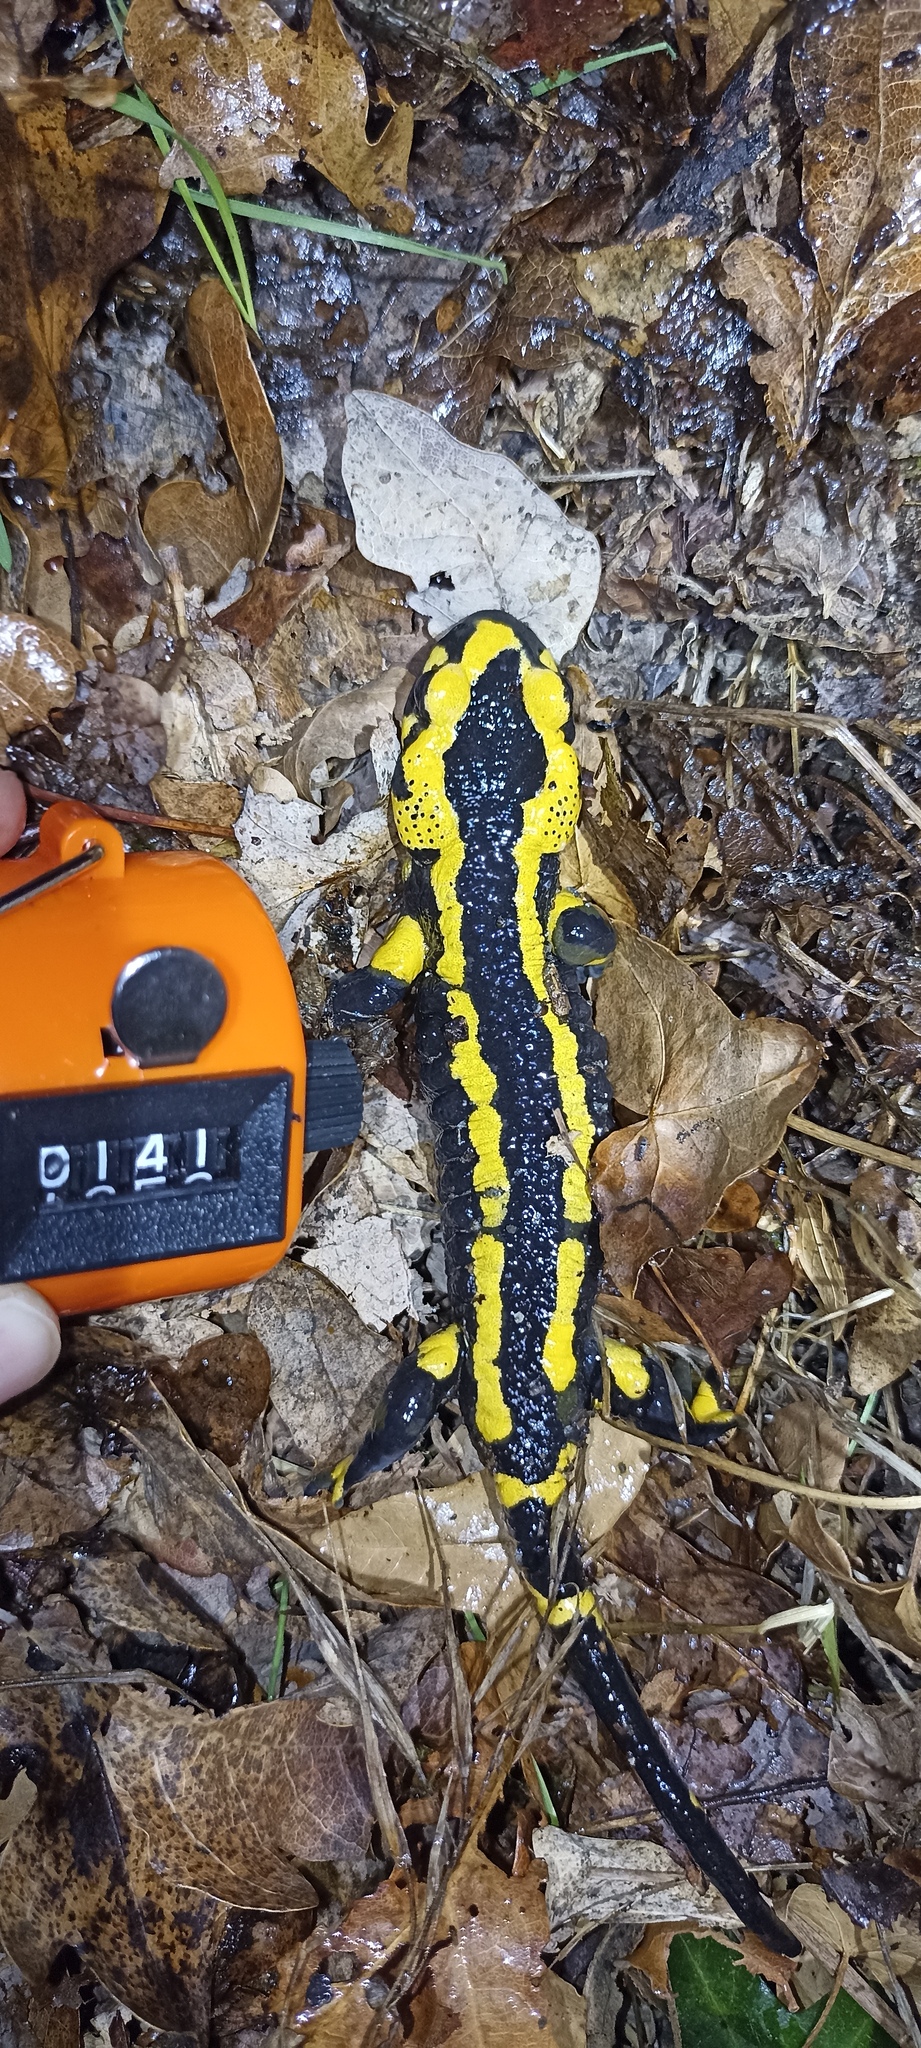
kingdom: Animalia
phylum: Chordata
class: Amphibia
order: Caudata
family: Salamandridae
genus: Salamandra
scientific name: Salamandra salamandra
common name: Fire salamander
